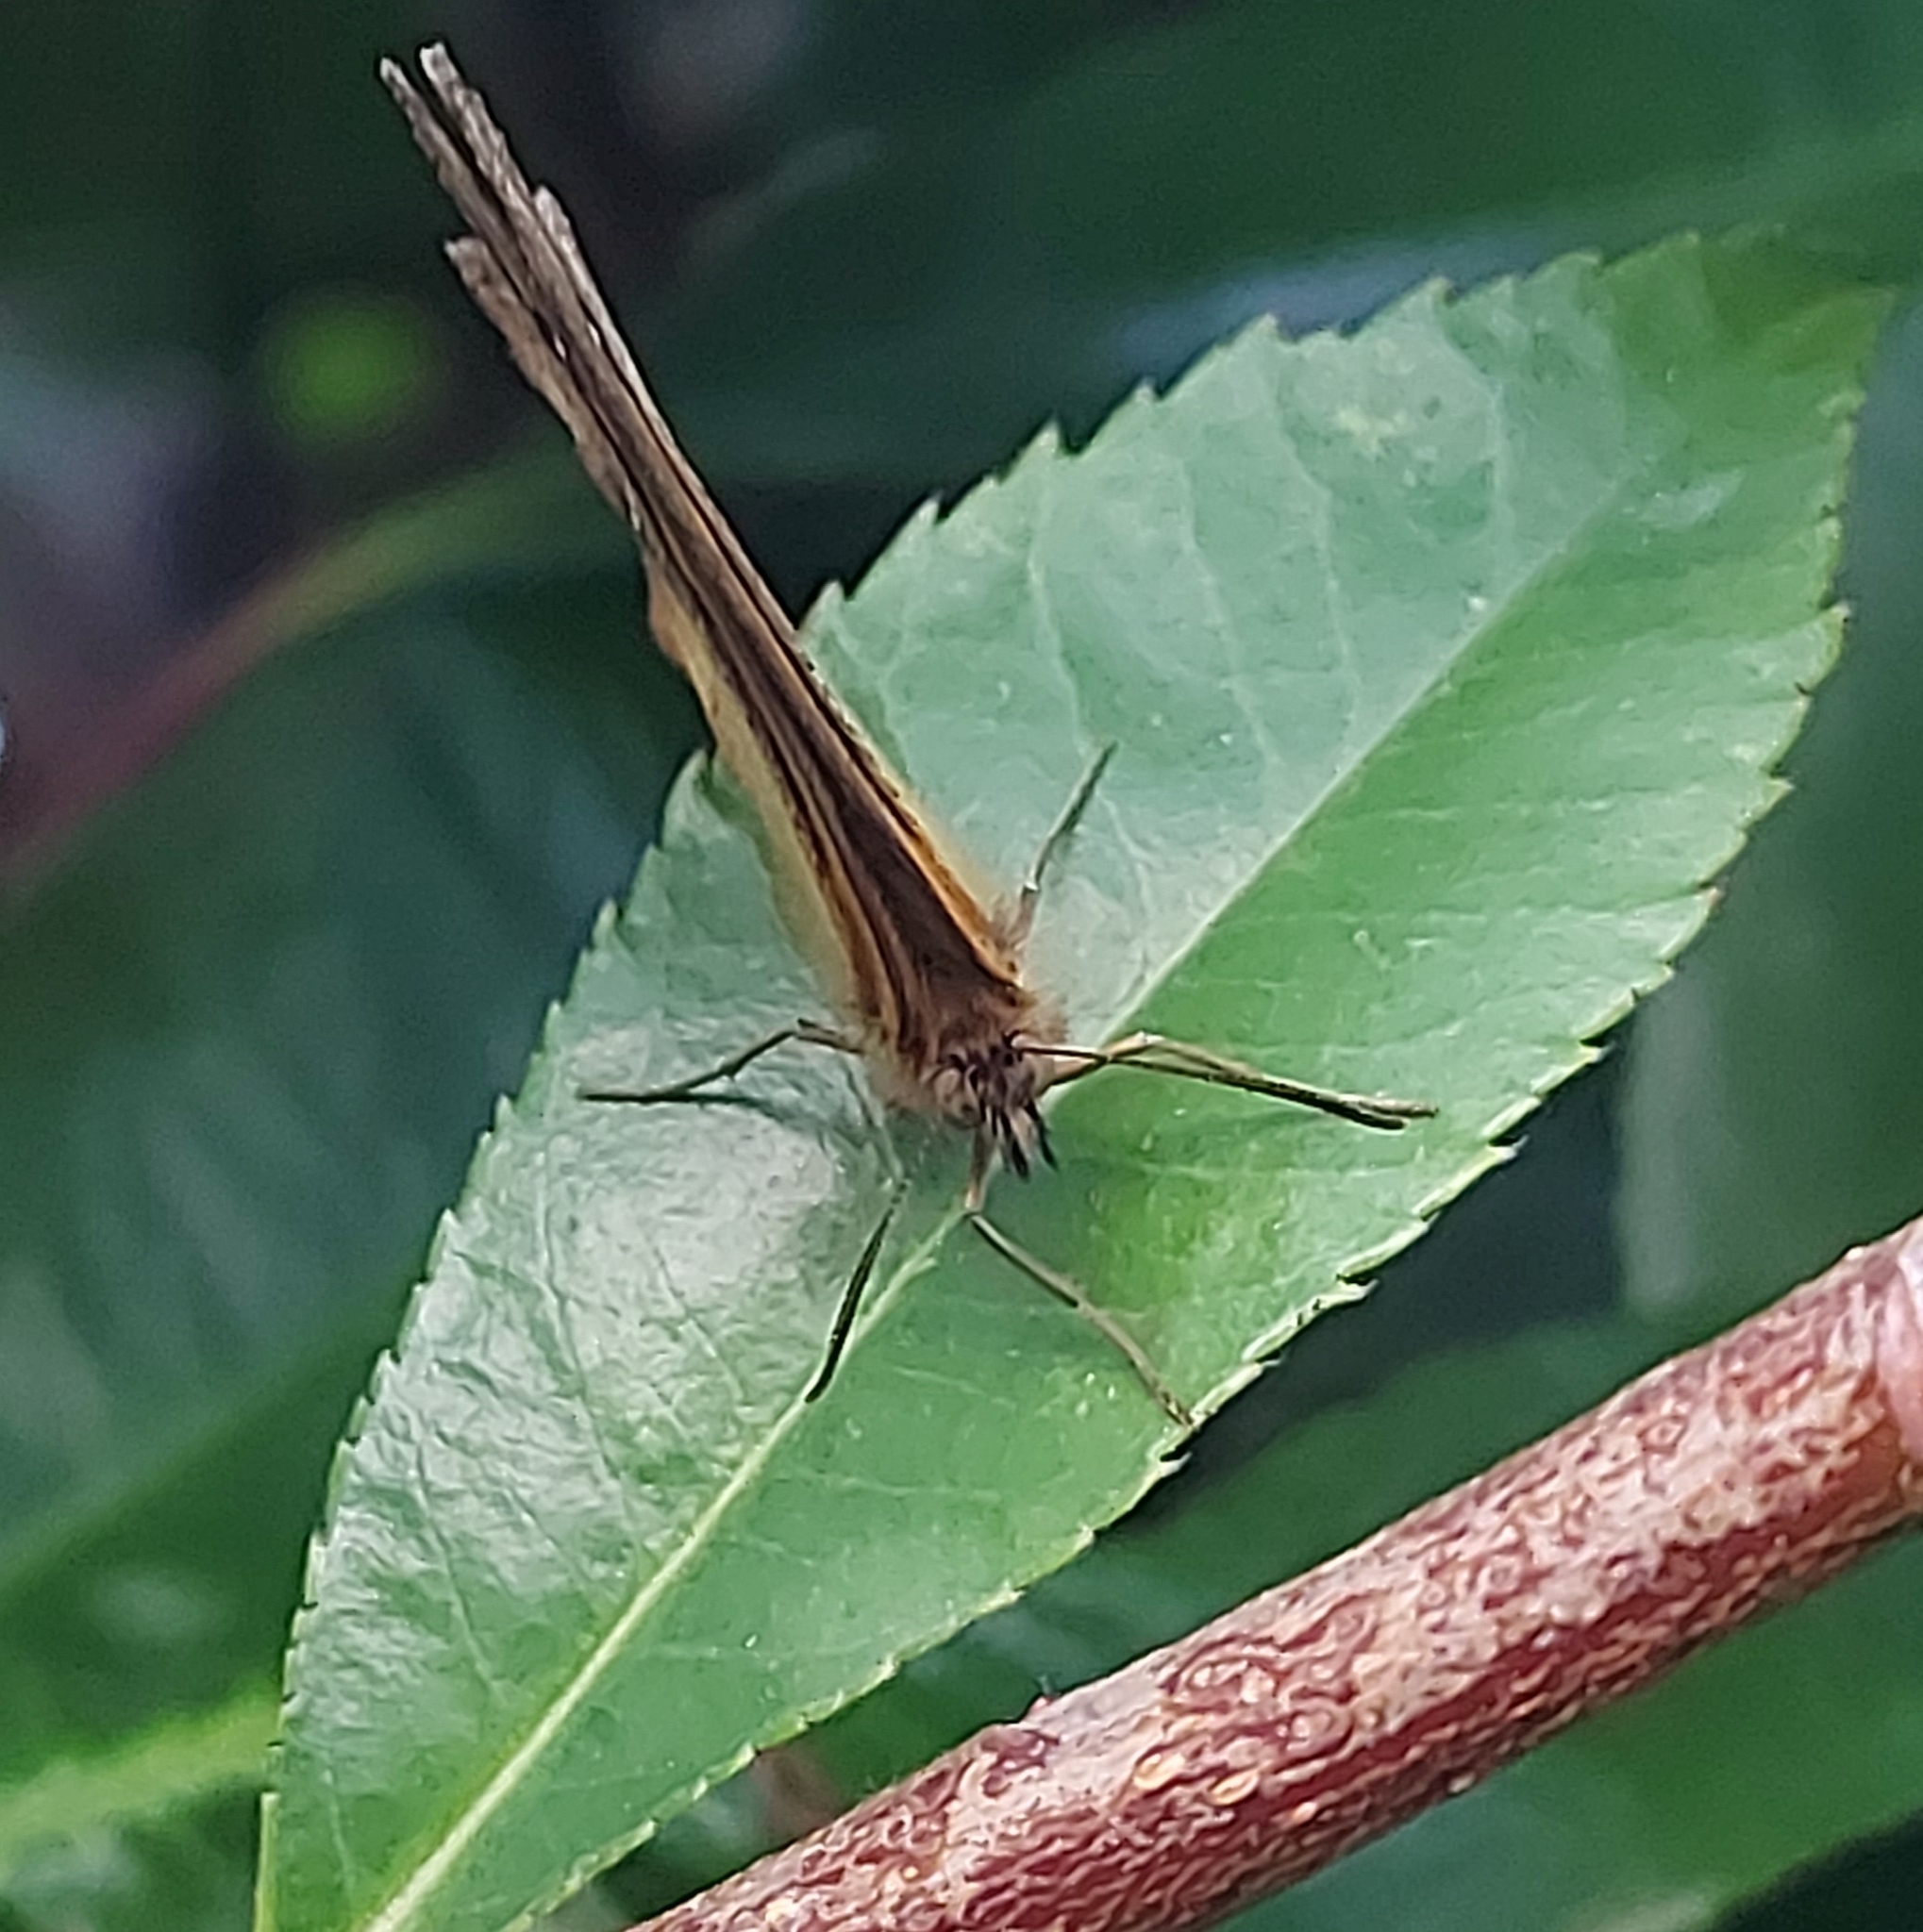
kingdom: Animalia
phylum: Arthropoda
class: Insecta
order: Lepidoptera
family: Nymphalidae
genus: Pyronia
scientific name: Pyronia tithonus
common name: Gatekeeper
